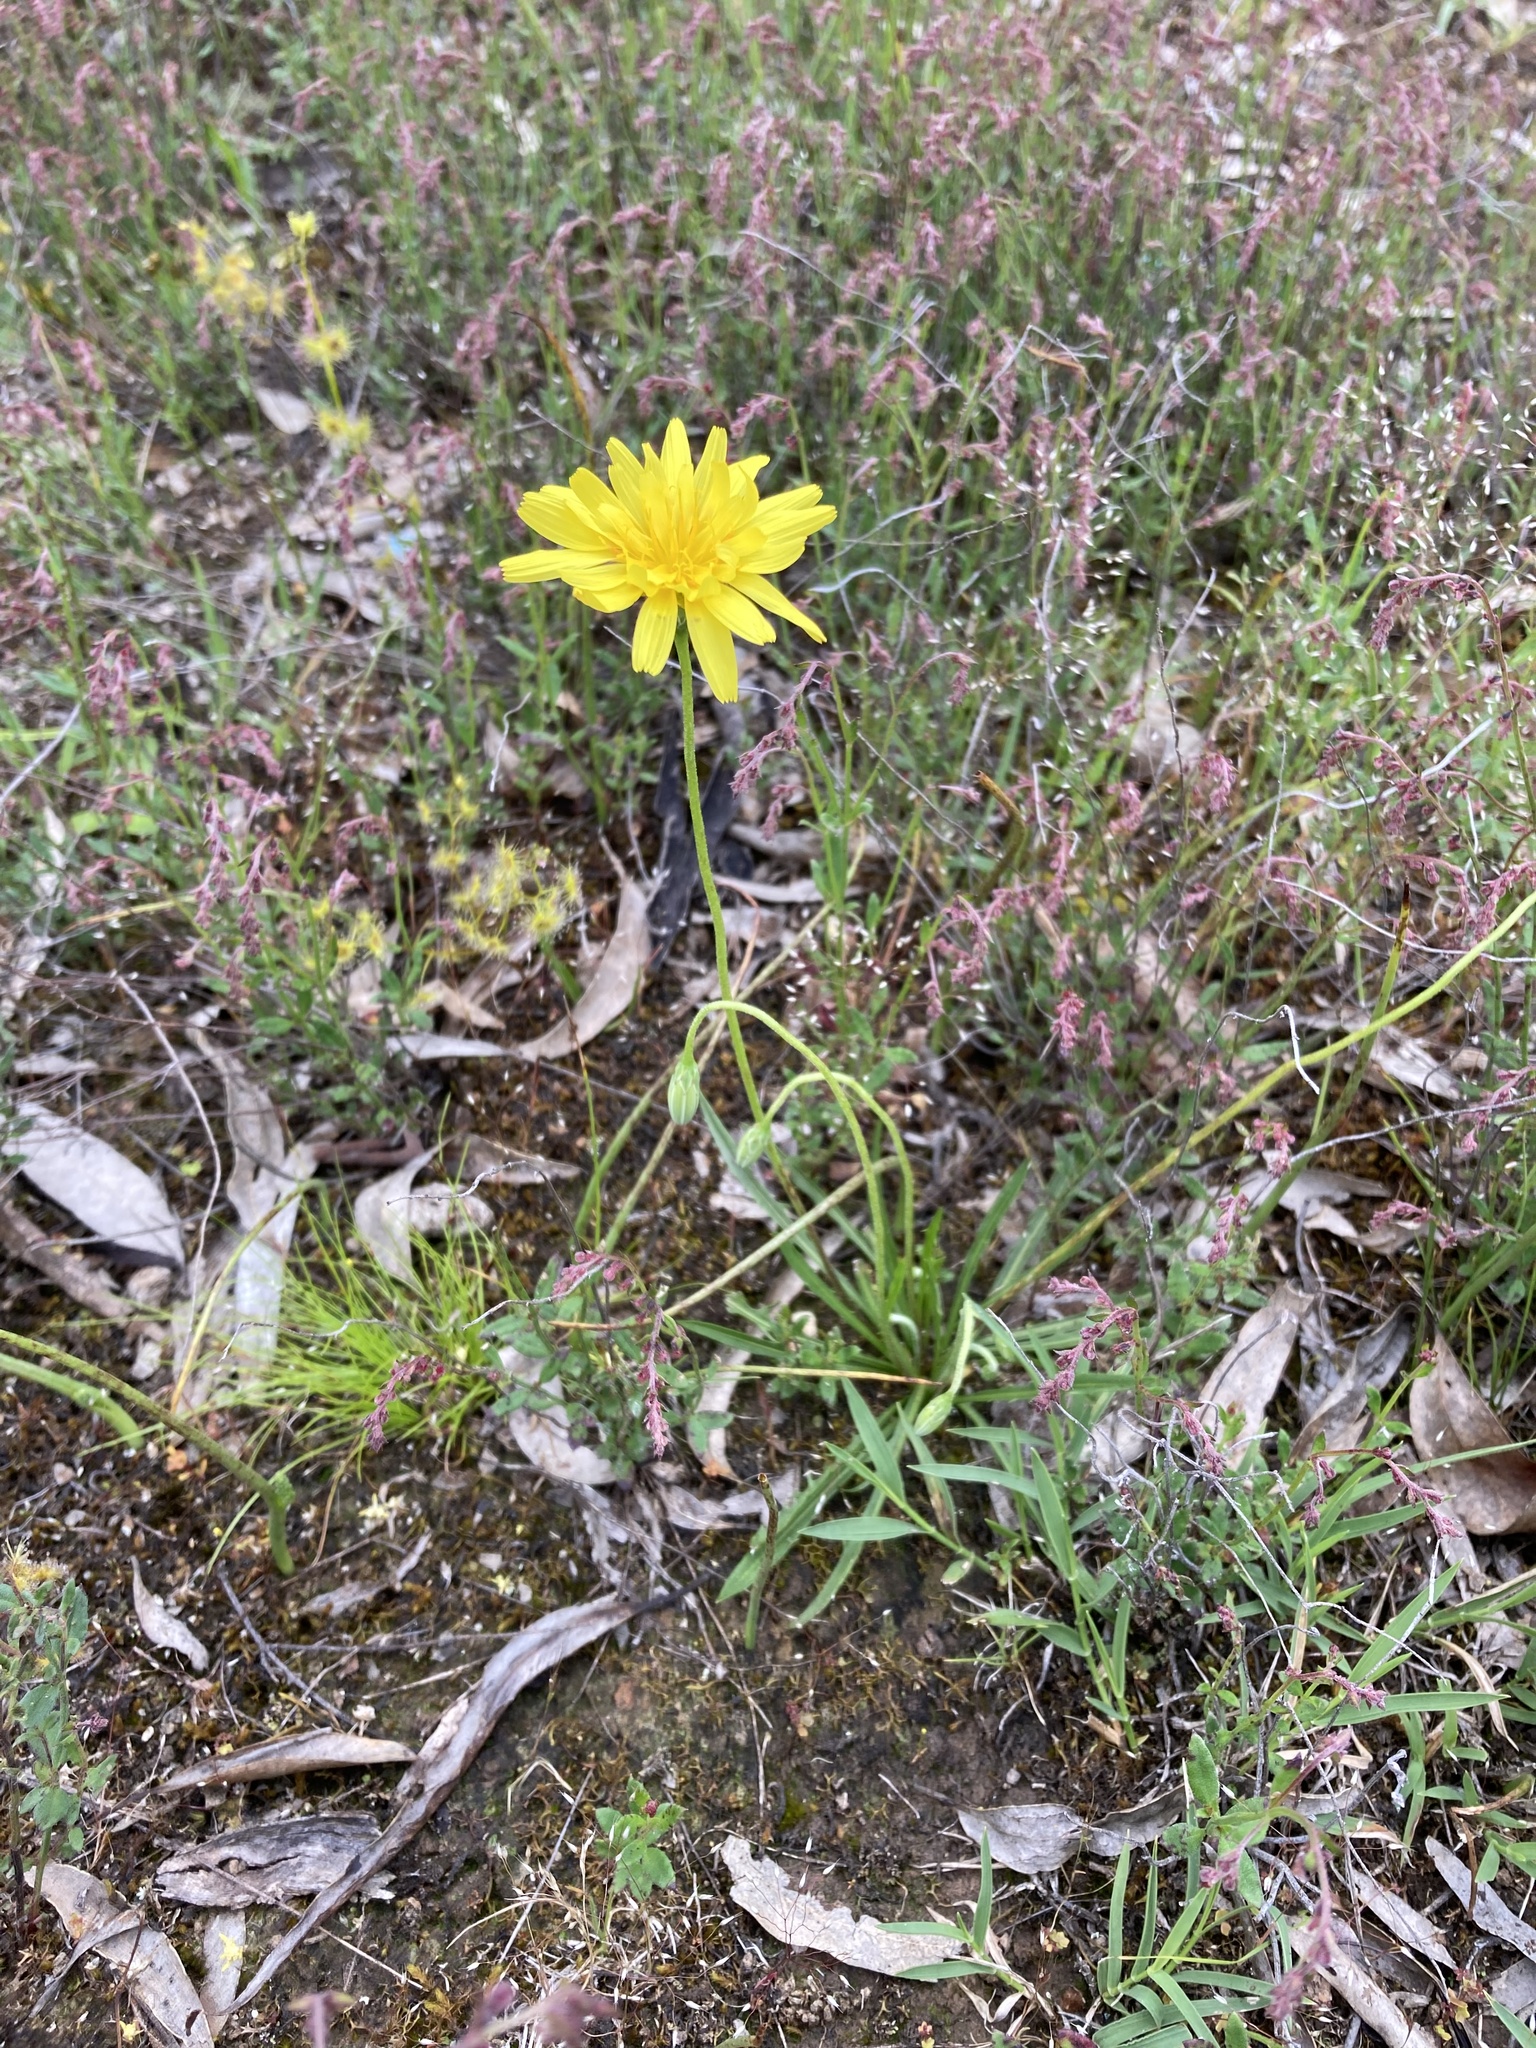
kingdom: Plantae
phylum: Tracheophyta
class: Magnoliopsida
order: Asterales
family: Asteraceae
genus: Microseris
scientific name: Microseris lanceolata
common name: Yam daisy
